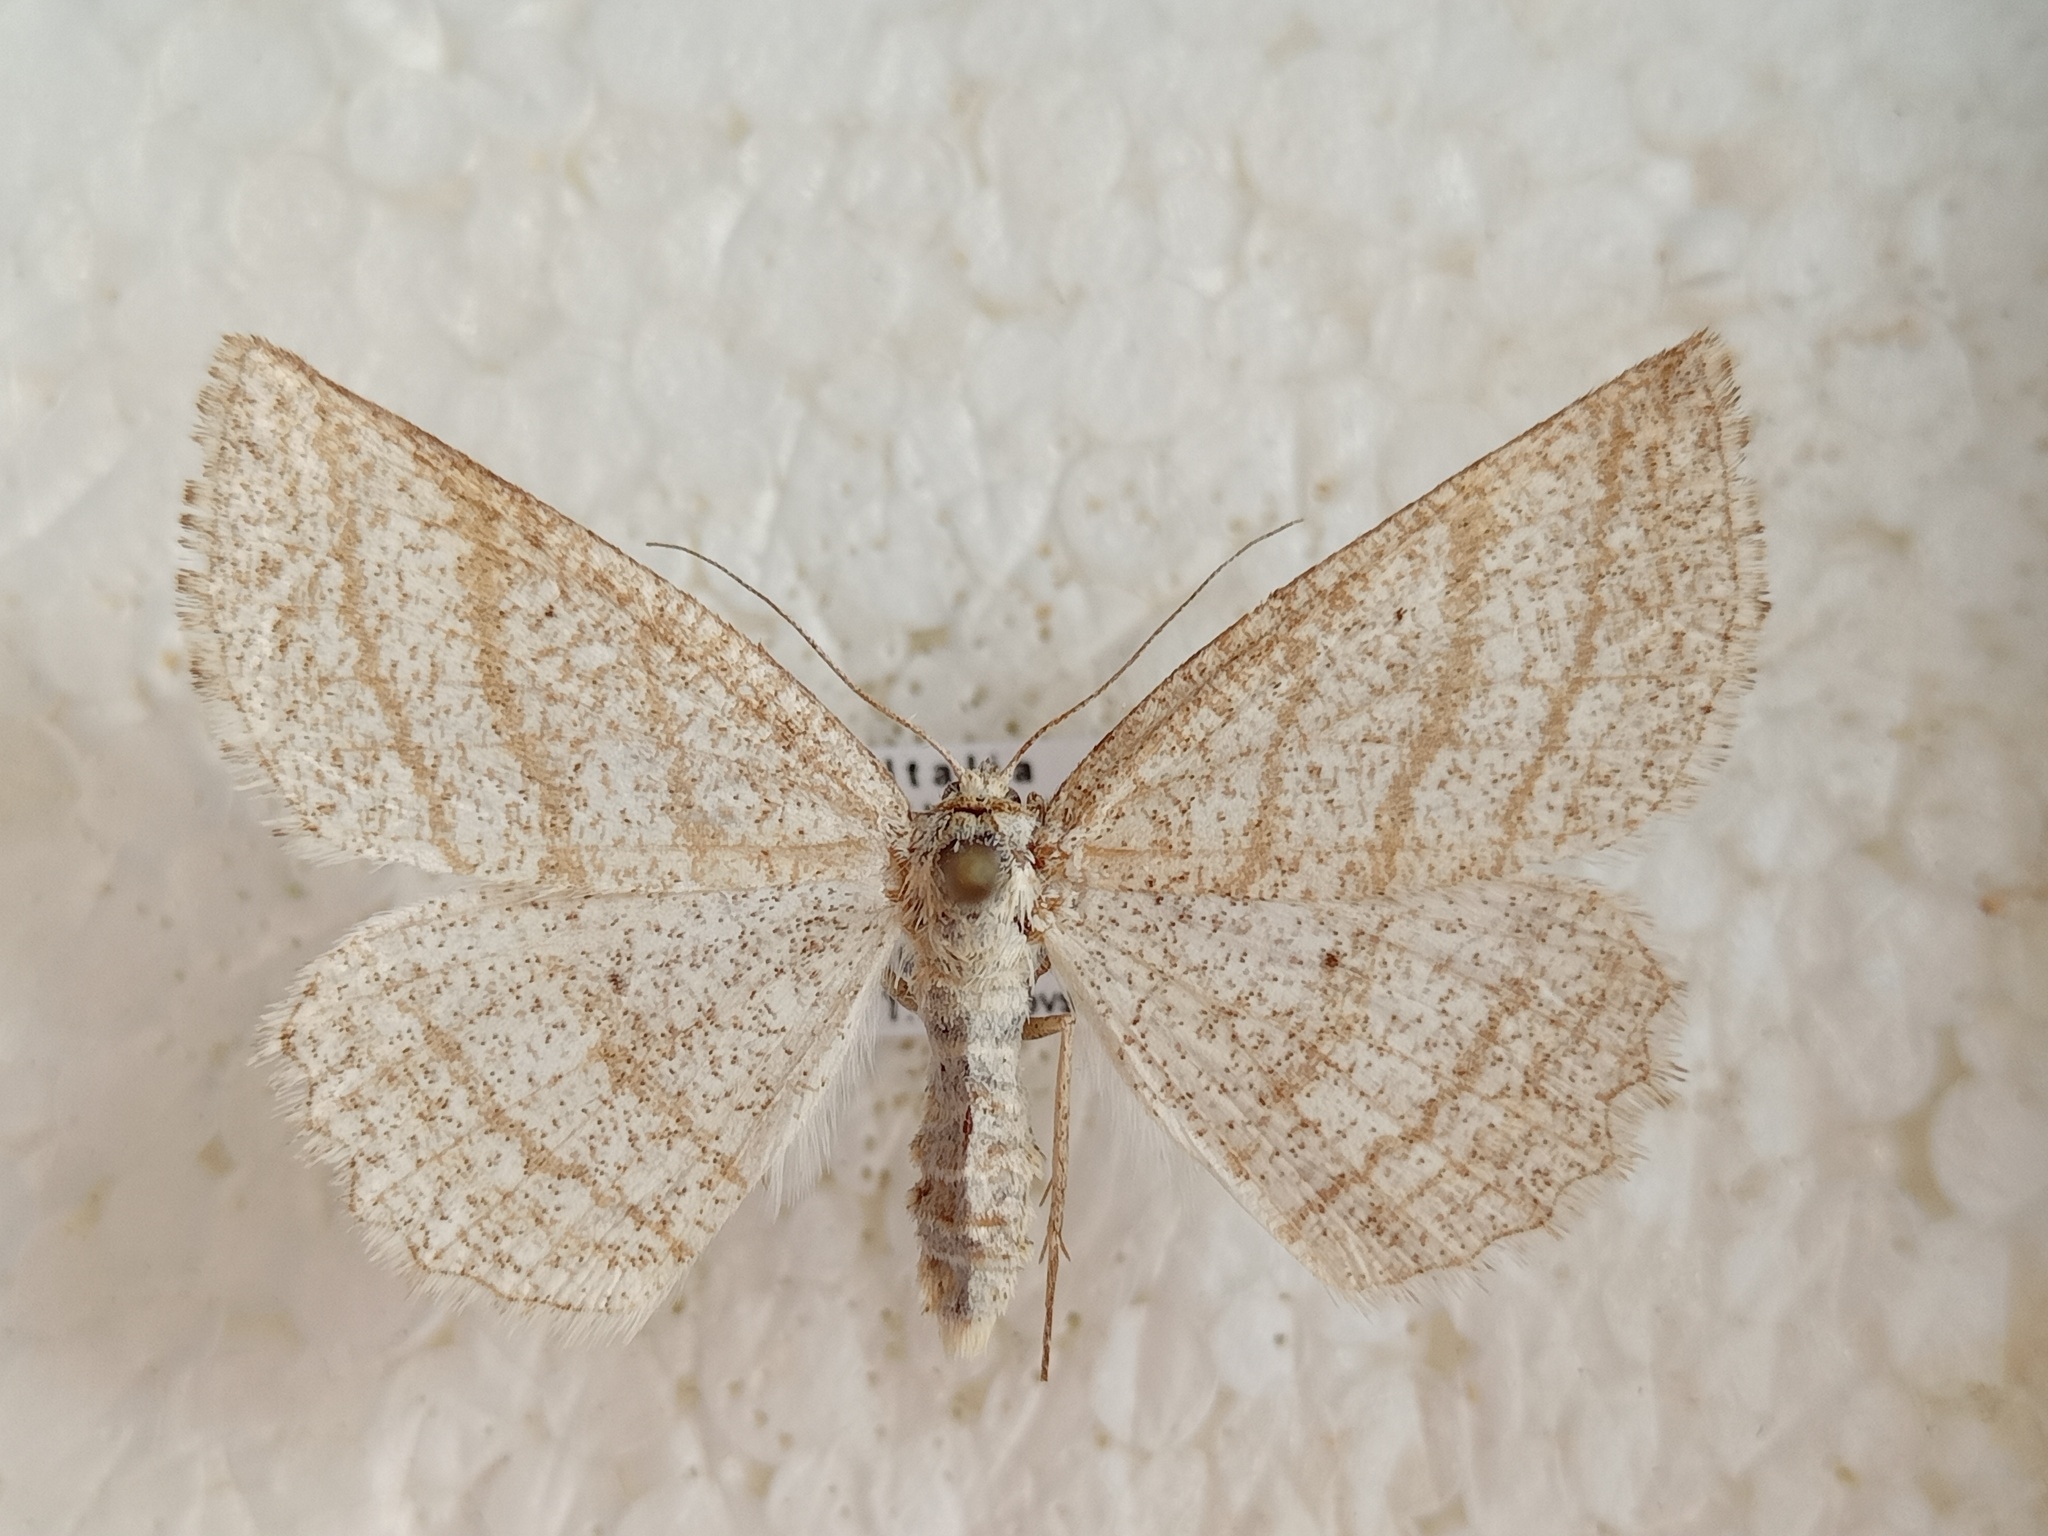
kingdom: Animalia
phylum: Arthropoda
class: Insecta
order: Lepidoptera
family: Geometridae
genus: Perconia
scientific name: Perconia strigillaria
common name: Grass wave
